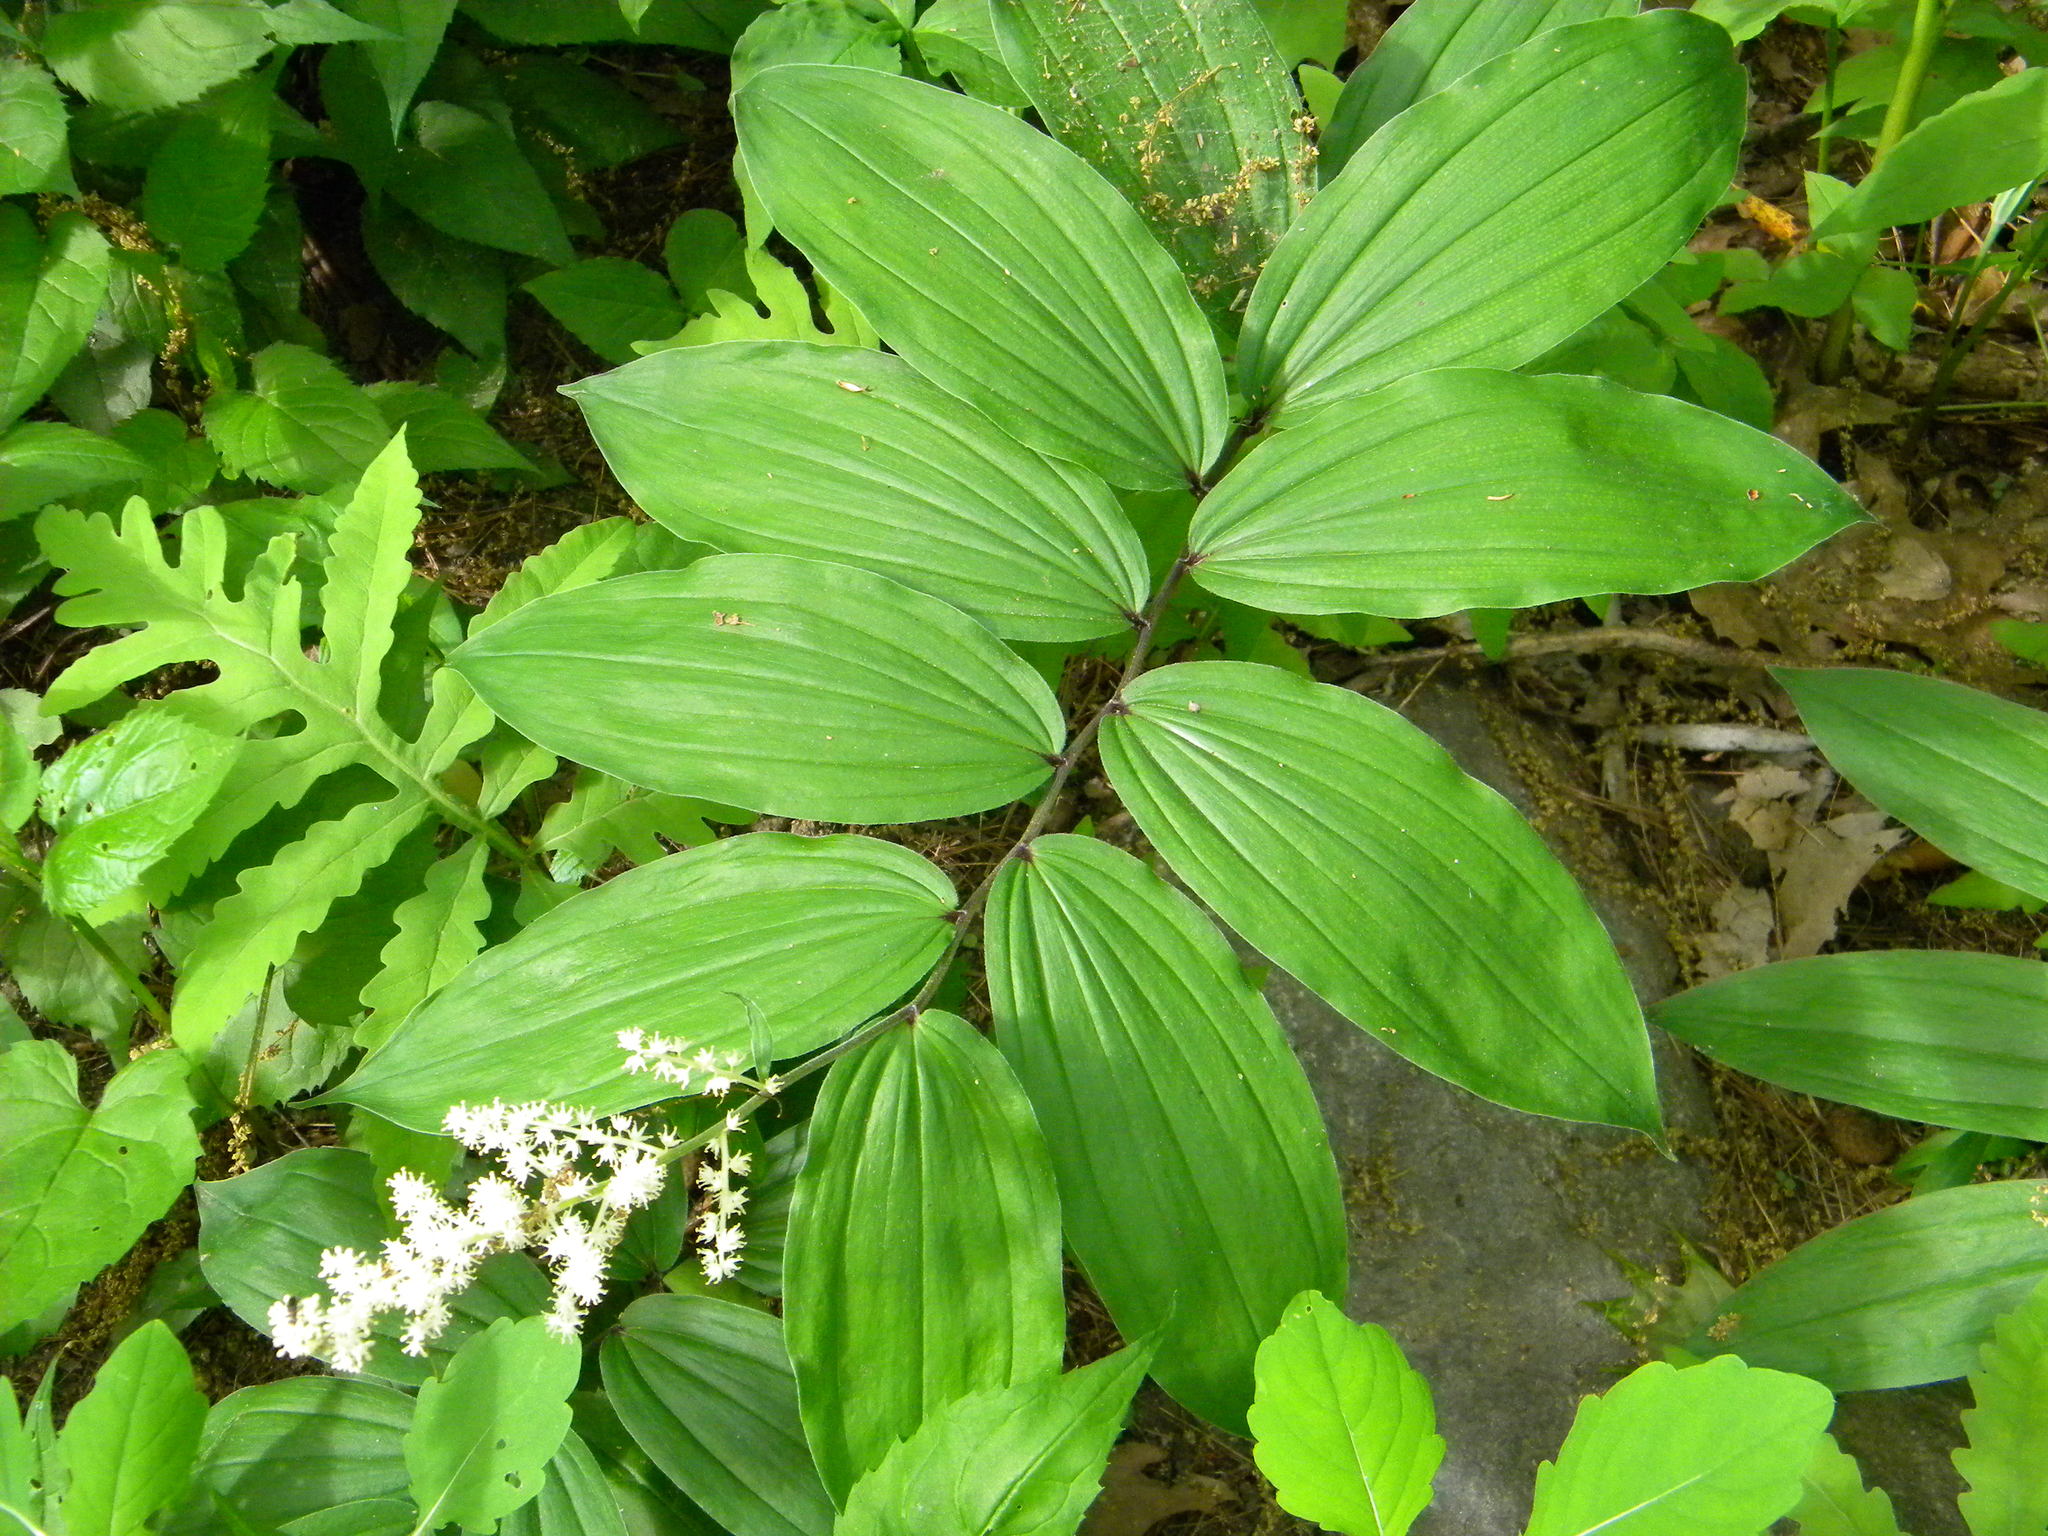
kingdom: Plantae
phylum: Tracheophyta
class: Liliopsida
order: Asparagales
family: Asparagaceae
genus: Maianthemum
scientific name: Maianthemum racemosum
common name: False spikenard
